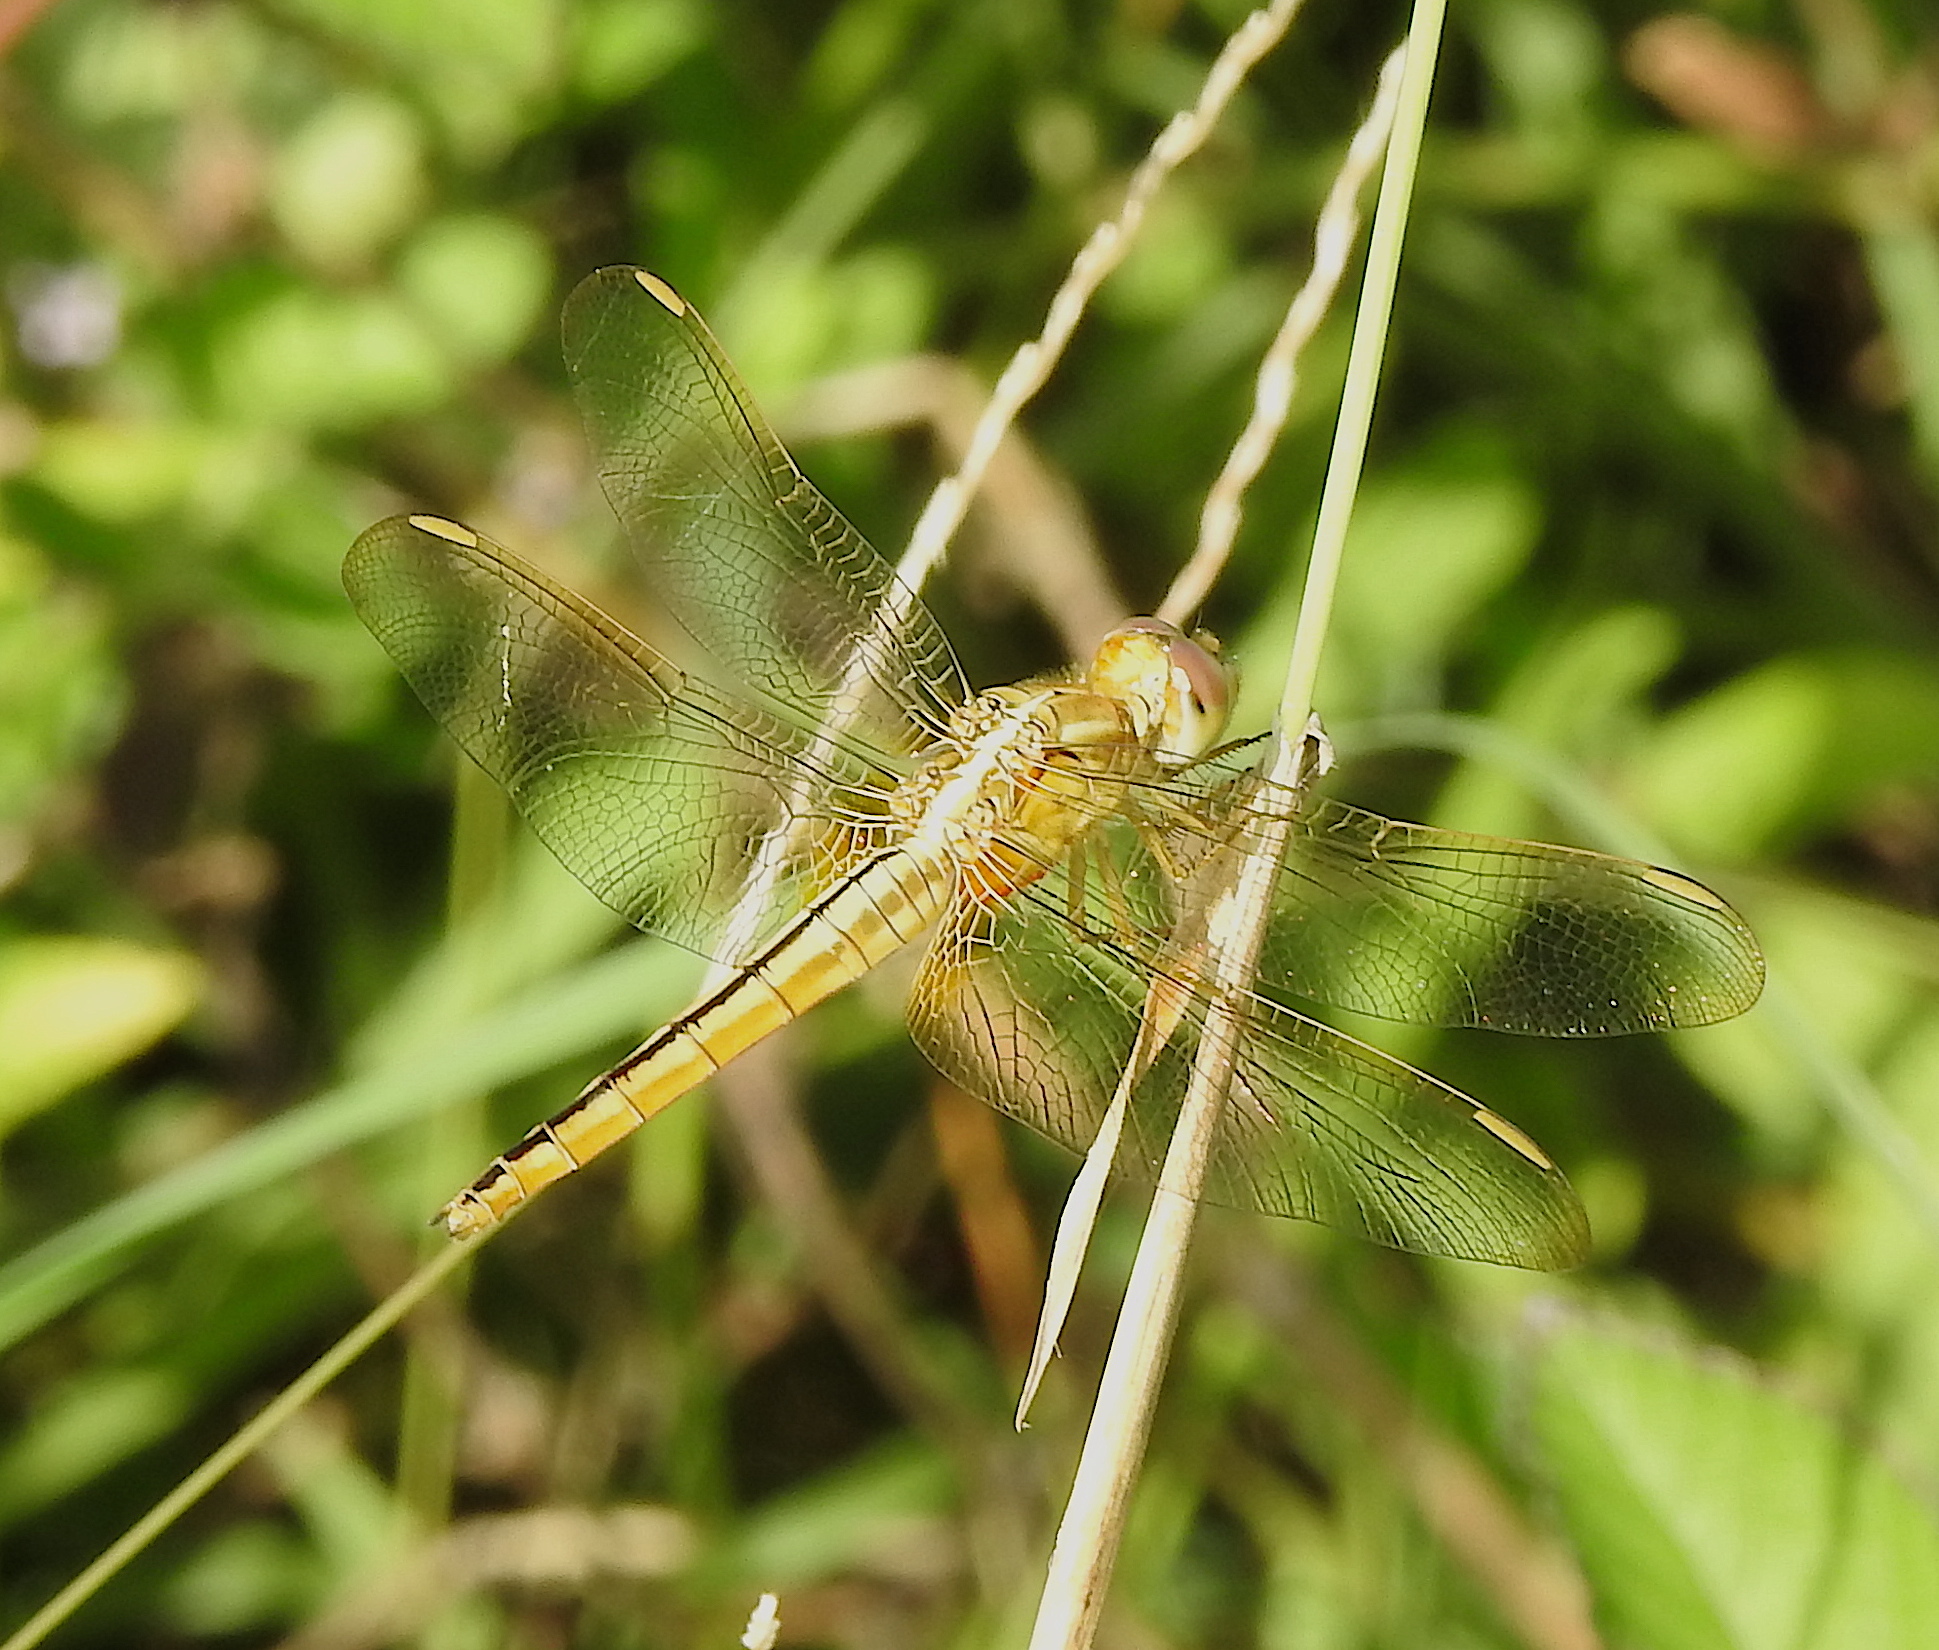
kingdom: Animalia
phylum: Arthropoda
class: Insecta
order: Odonata
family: Libellulidae
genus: Crocothemis
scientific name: Crocothemis servilia
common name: Scarlet skimmer
